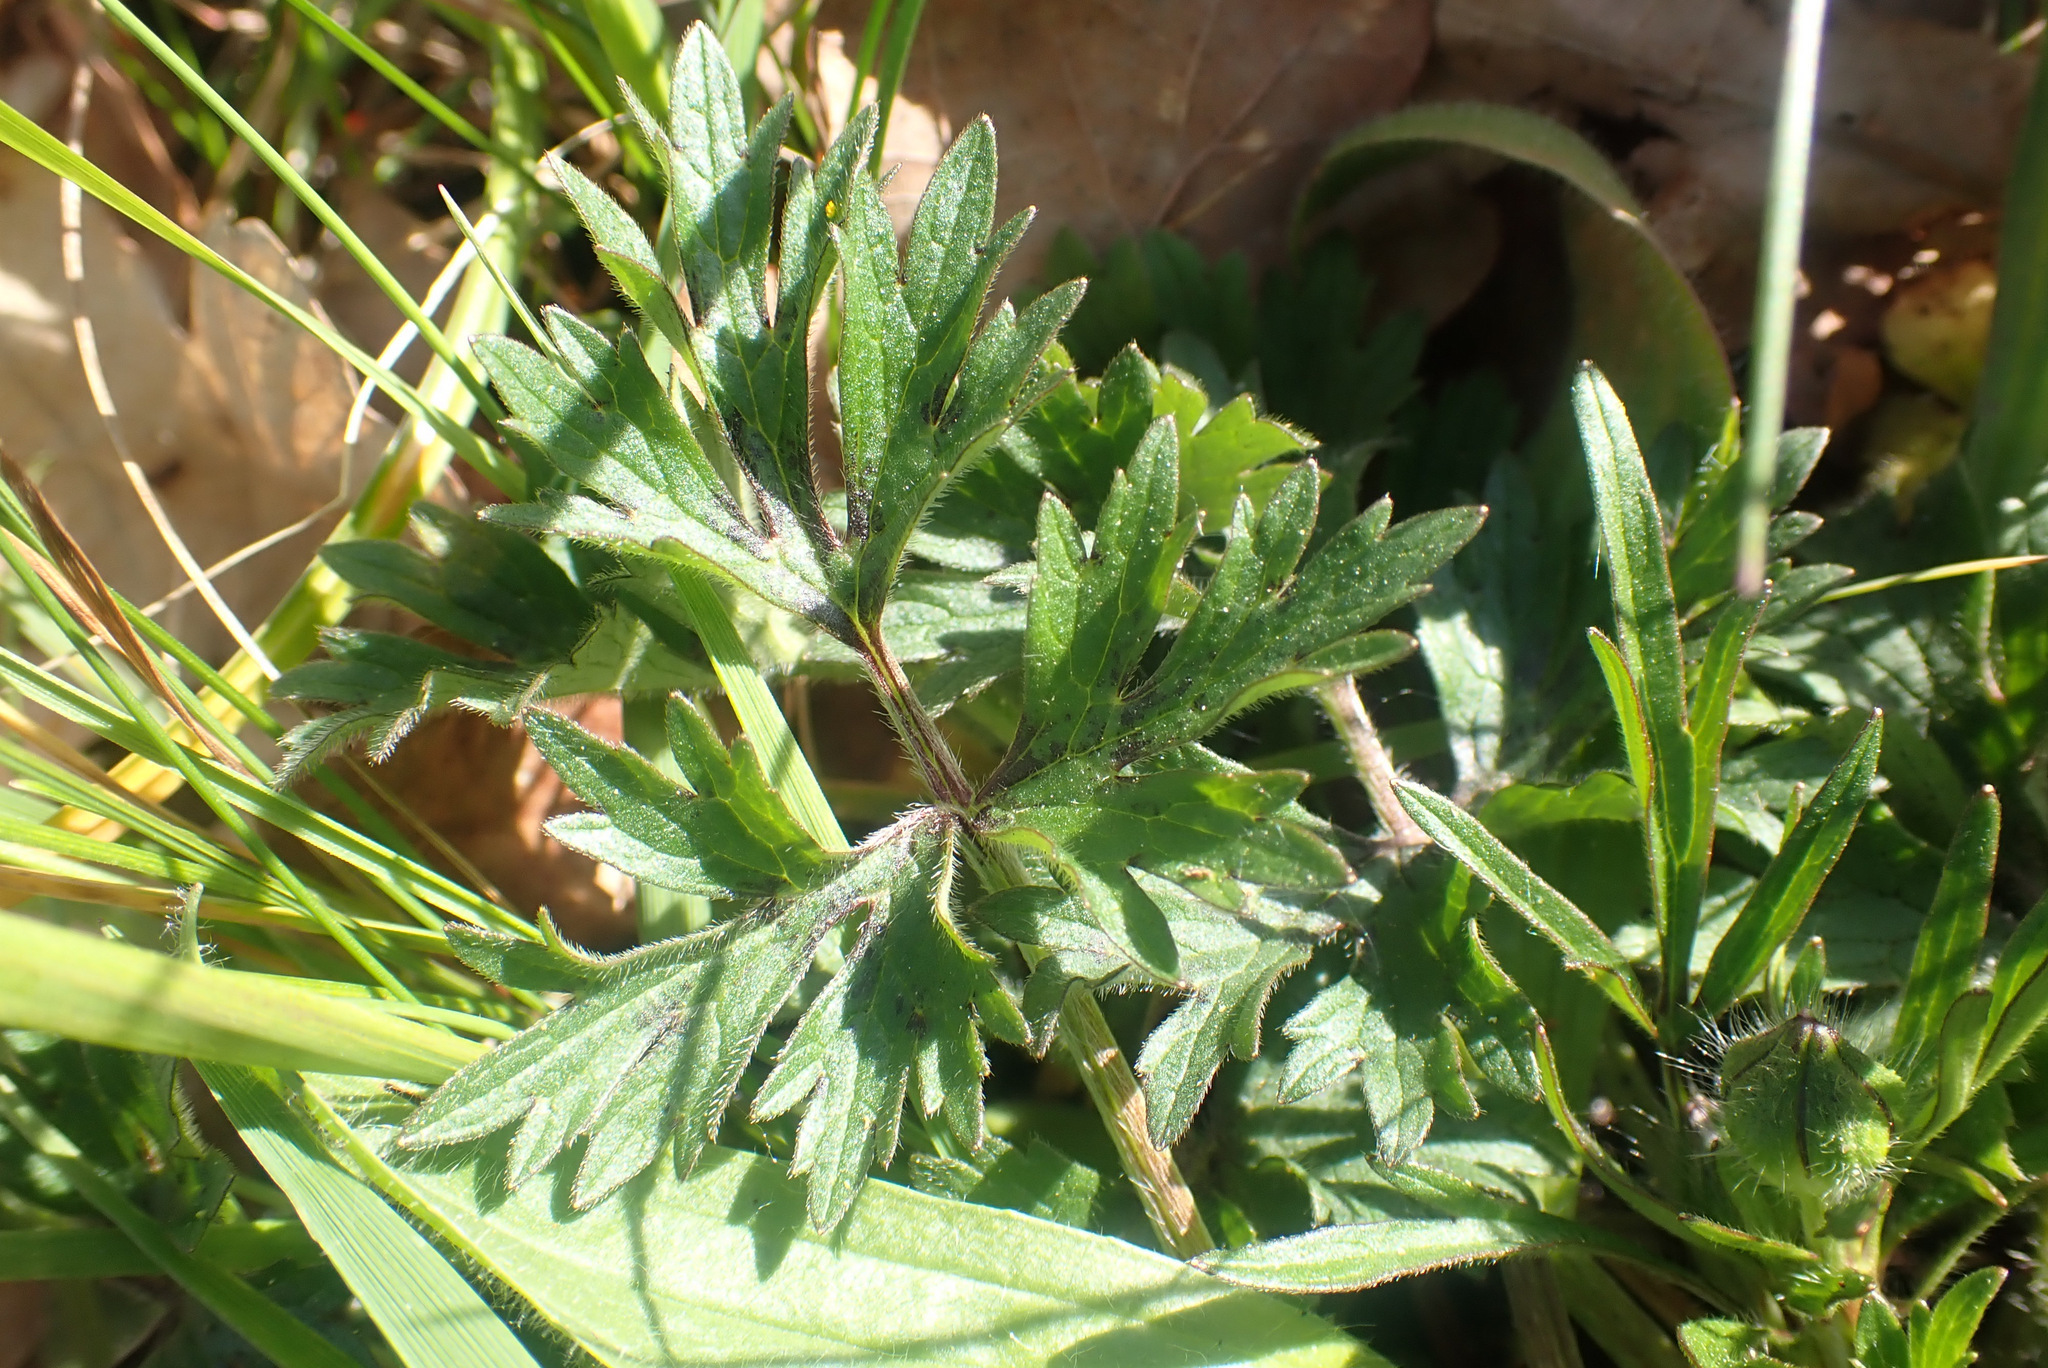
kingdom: Plantae
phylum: Tracheophyta
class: Magnoliopsida
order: Ranunculales
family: Ranunculaceae
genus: Ranunculus
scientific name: Ranunculus repens
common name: Creeping buttercup
